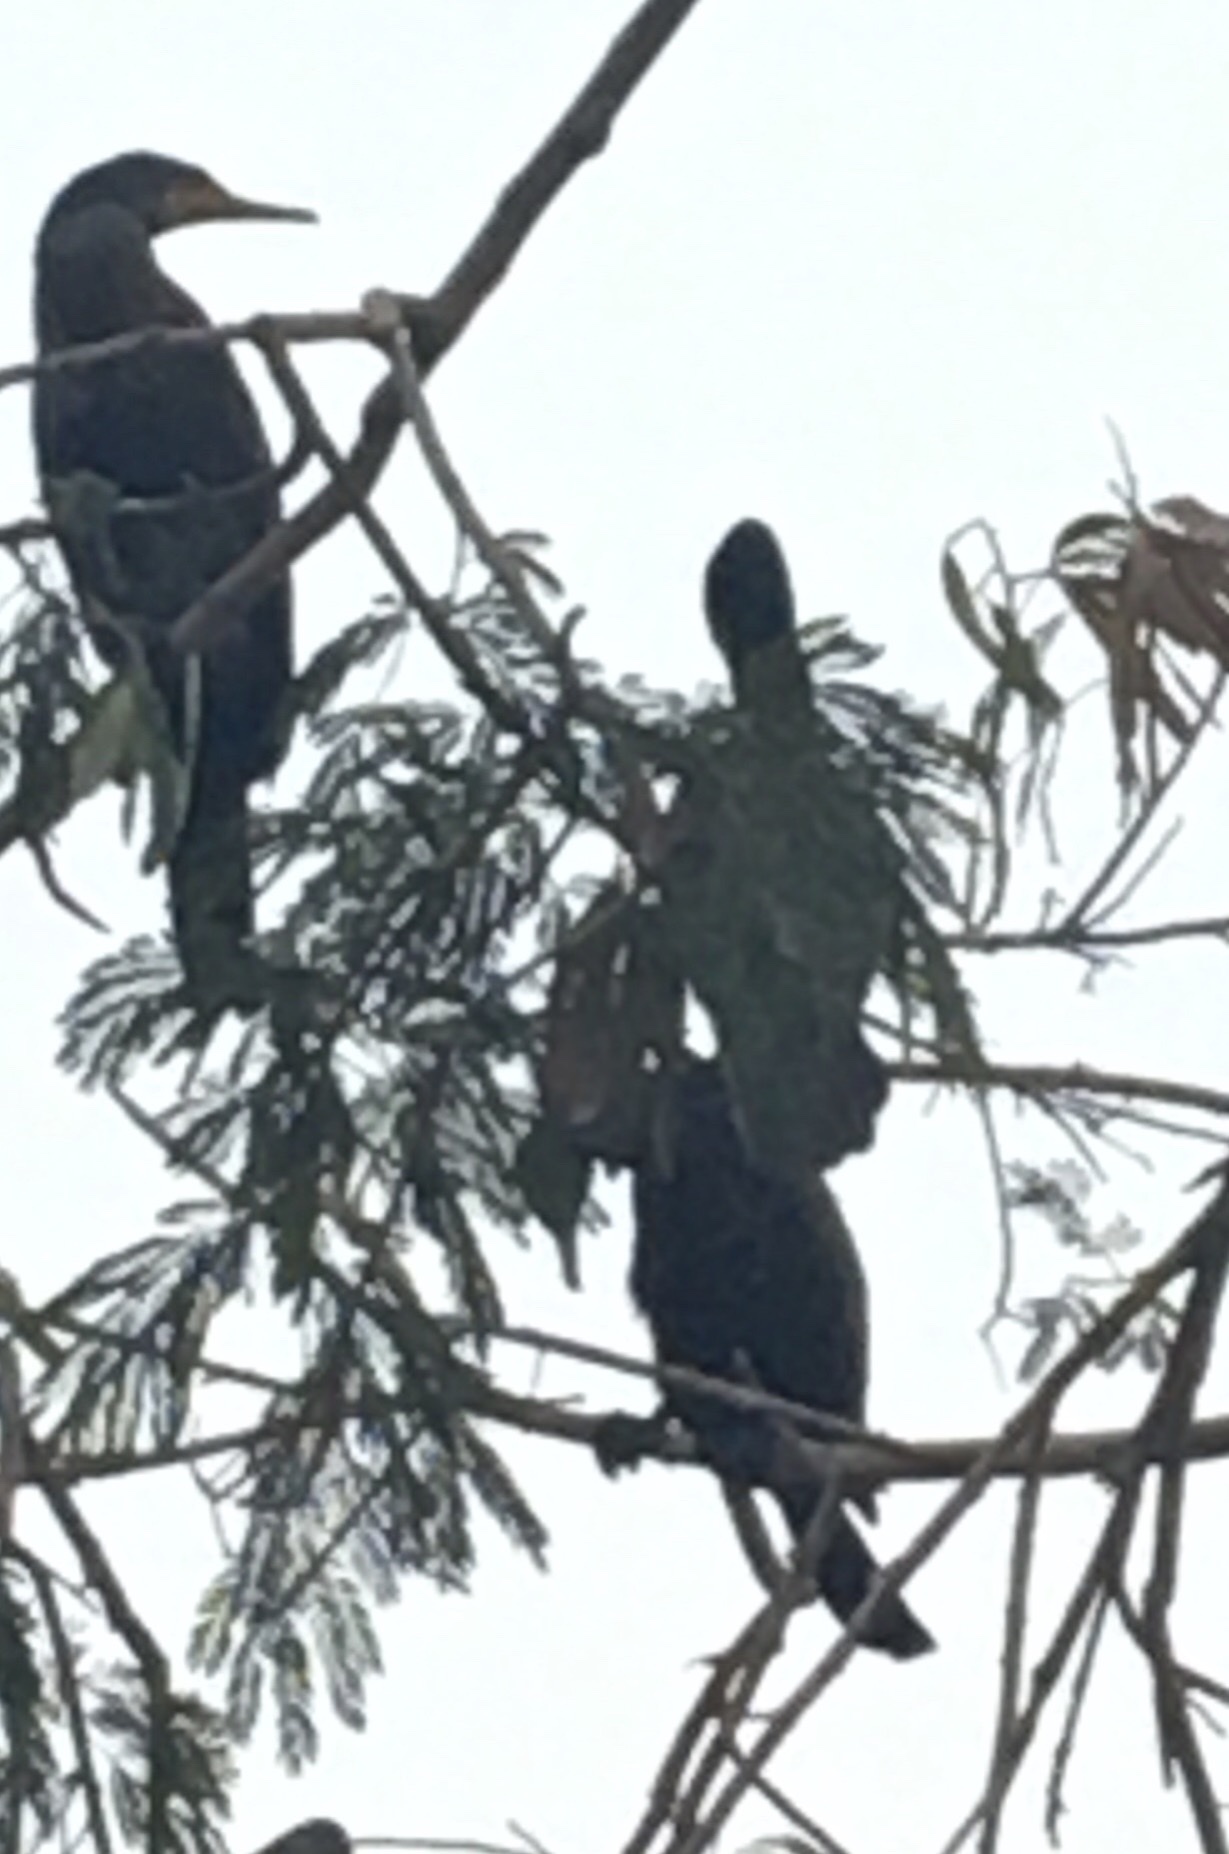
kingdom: Animalia
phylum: Chordata
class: Aves
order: Suliformes
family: Phalacrocoracidae
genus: Phalacrocorax
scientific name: Phalacrocorax fuscicollis
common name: Indian cormorant
